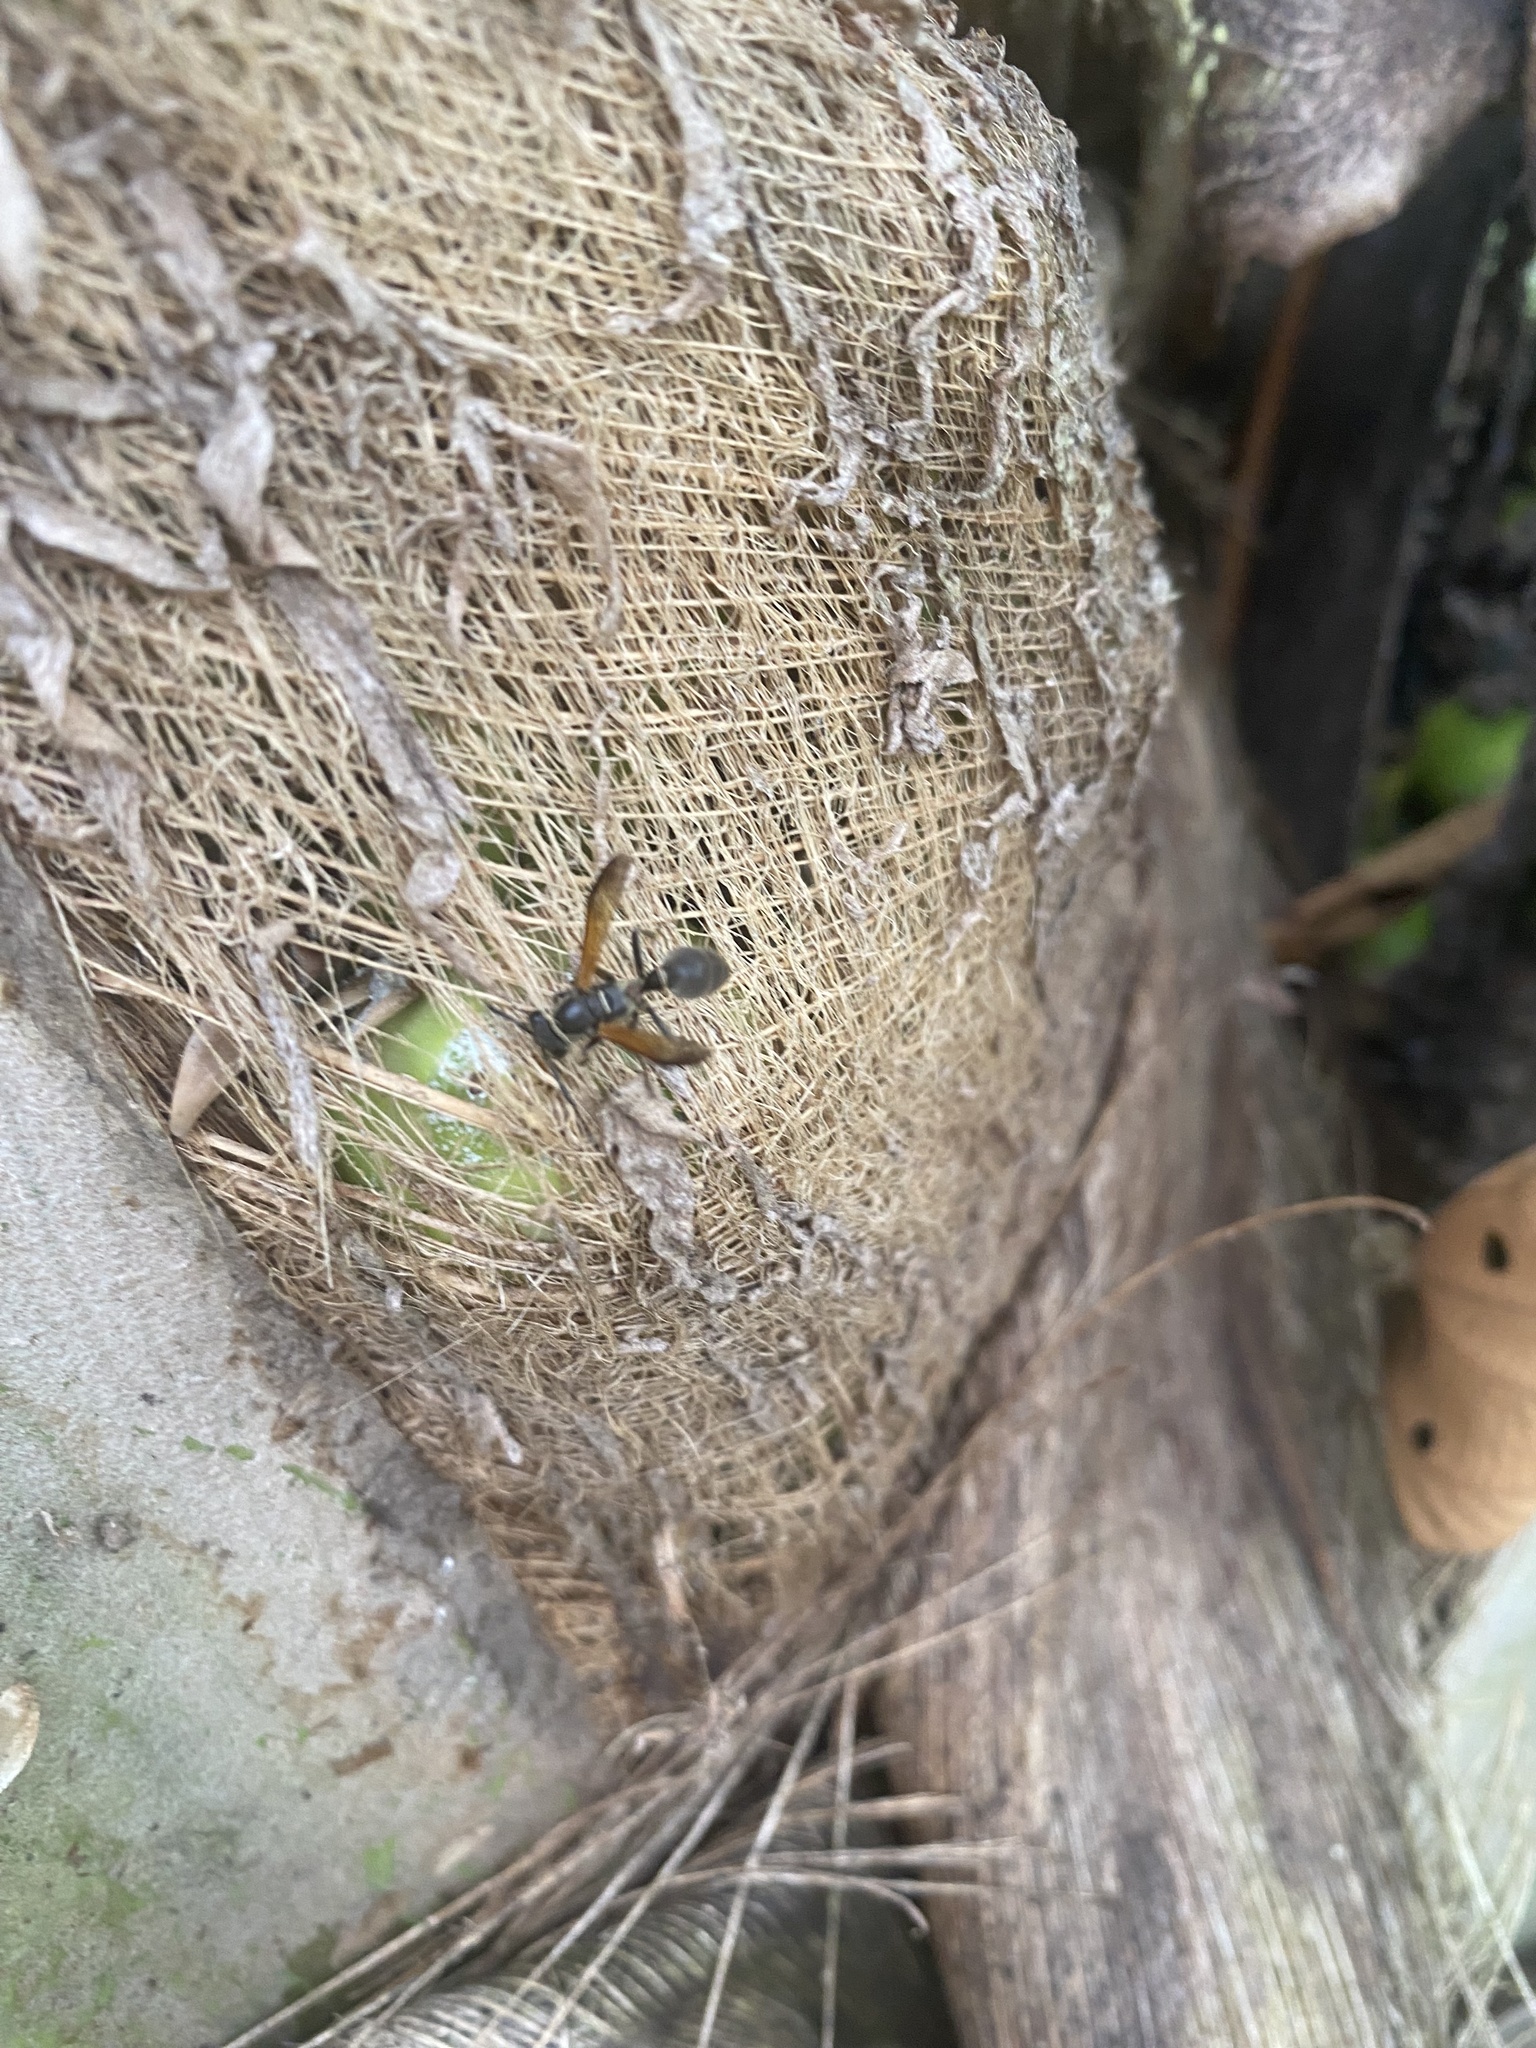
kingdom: Animalia
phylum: Arthropoda
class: Insecta
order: Hymenoptera
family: Eumenidae
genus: Polybia
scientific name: Polybia rejecta
